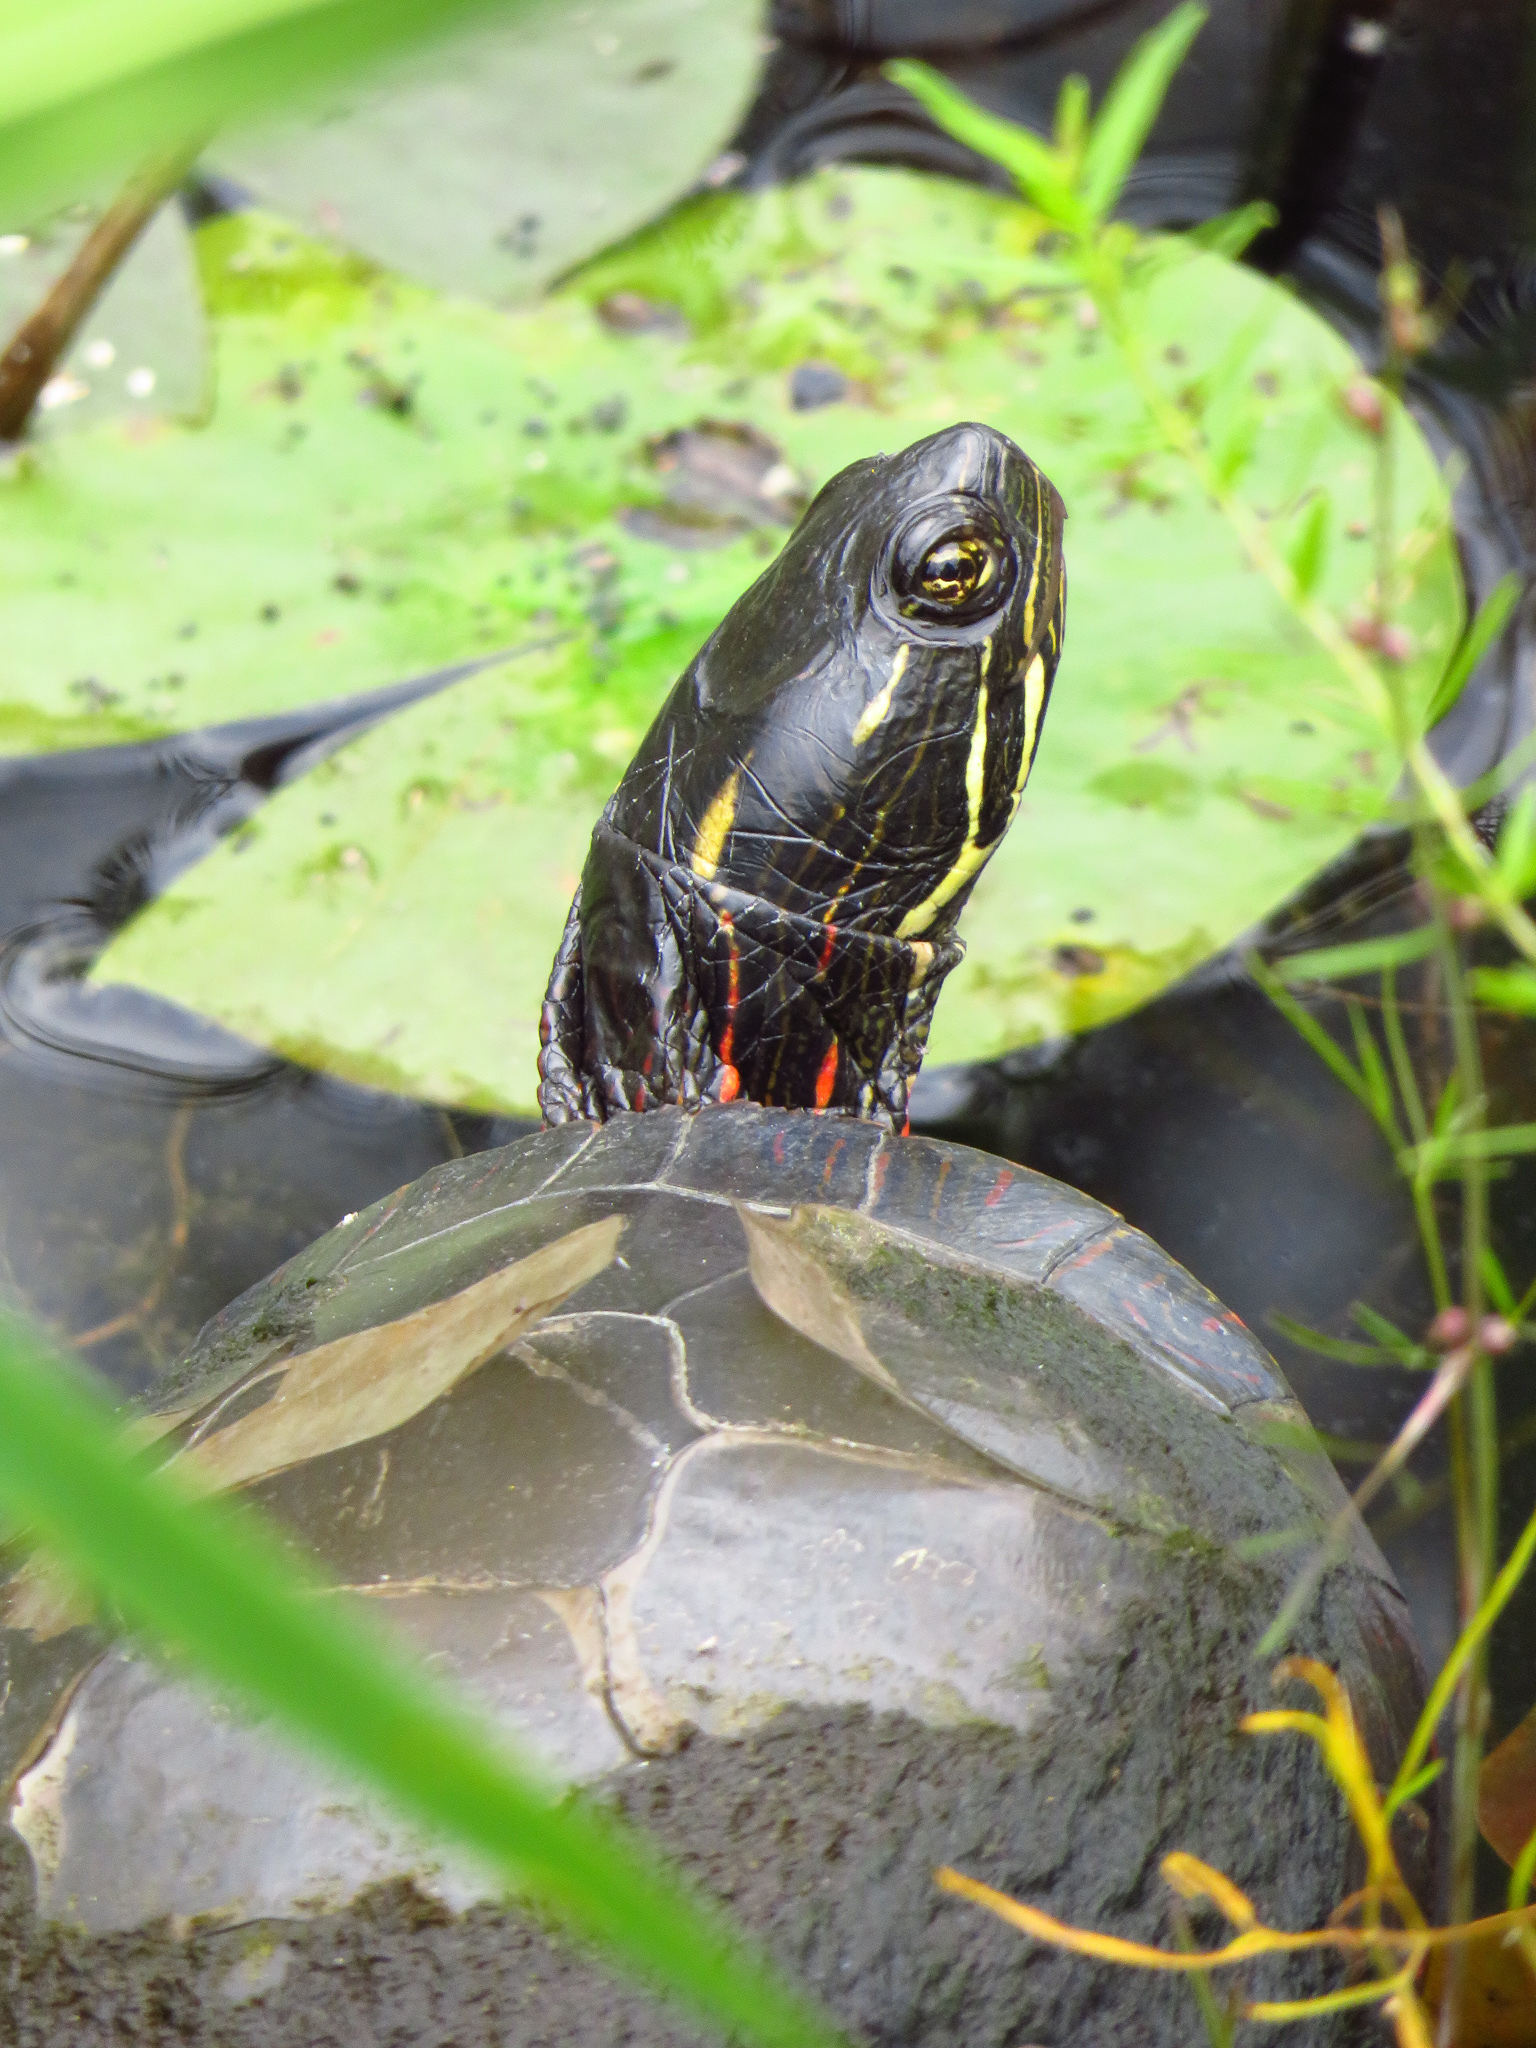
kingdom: Animalia
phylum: Chordata
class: Testudines
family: Emydidae
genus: Chrysemys
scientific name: Chrysemys picta
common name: Painted turtle
